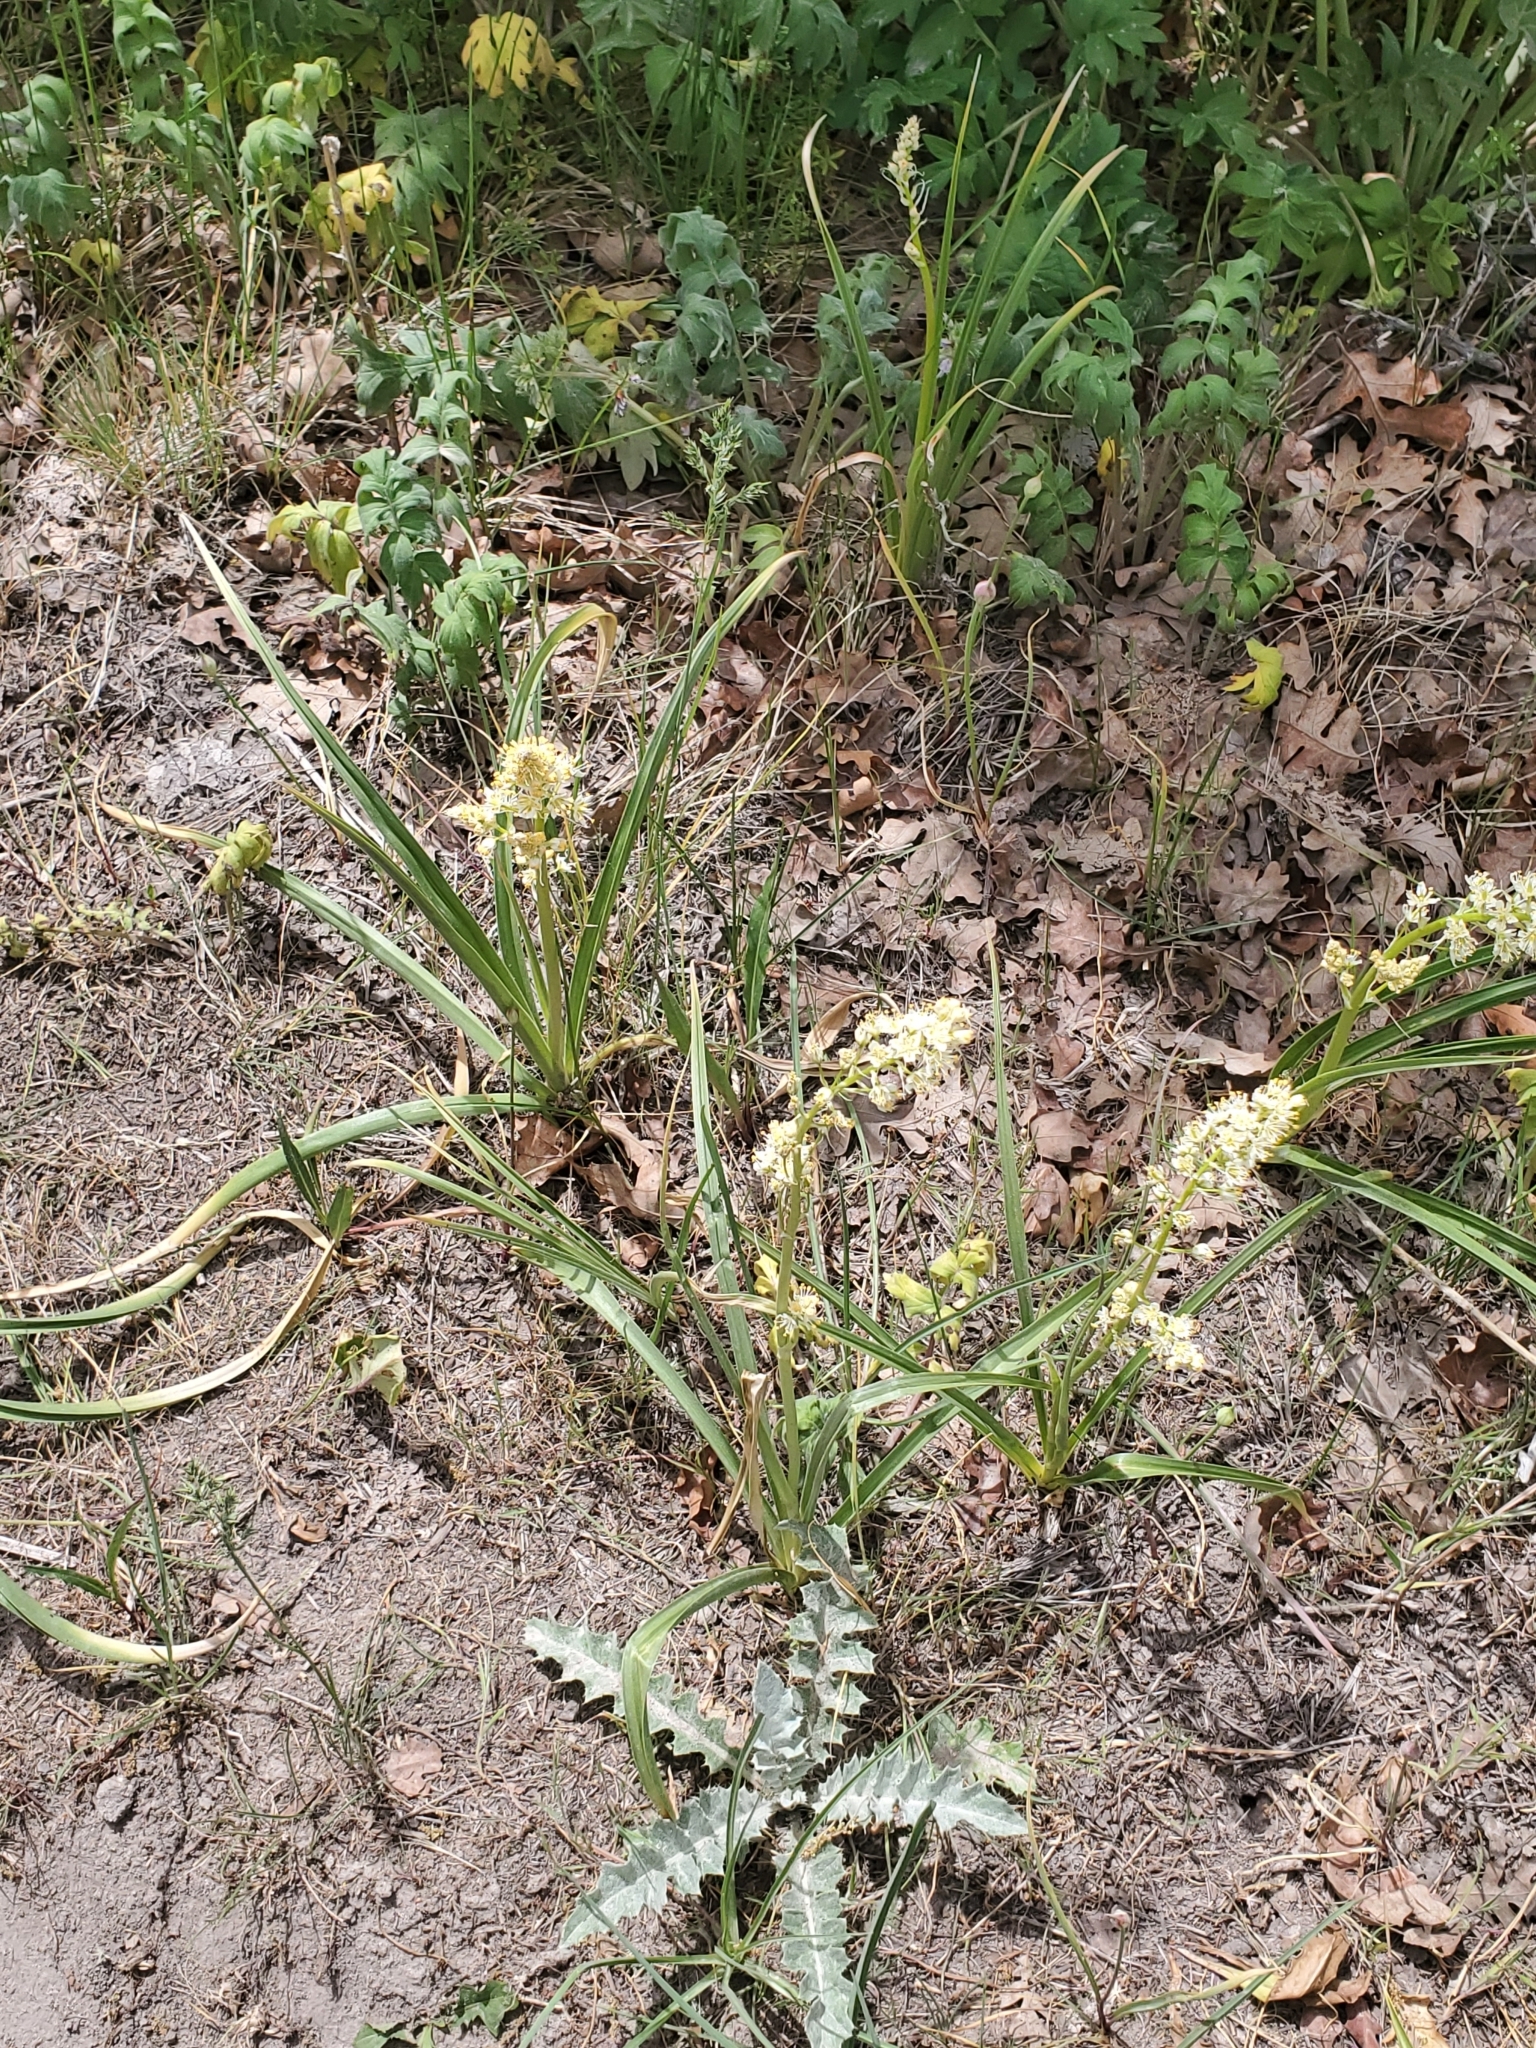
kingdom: Plantae
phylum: Tracheophyta
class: Liliopsida
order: Liliales
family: Melanthiaceae
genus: Toxicoscordion
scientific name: Toxicoscordion paniculatum
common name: Foothill death camas
